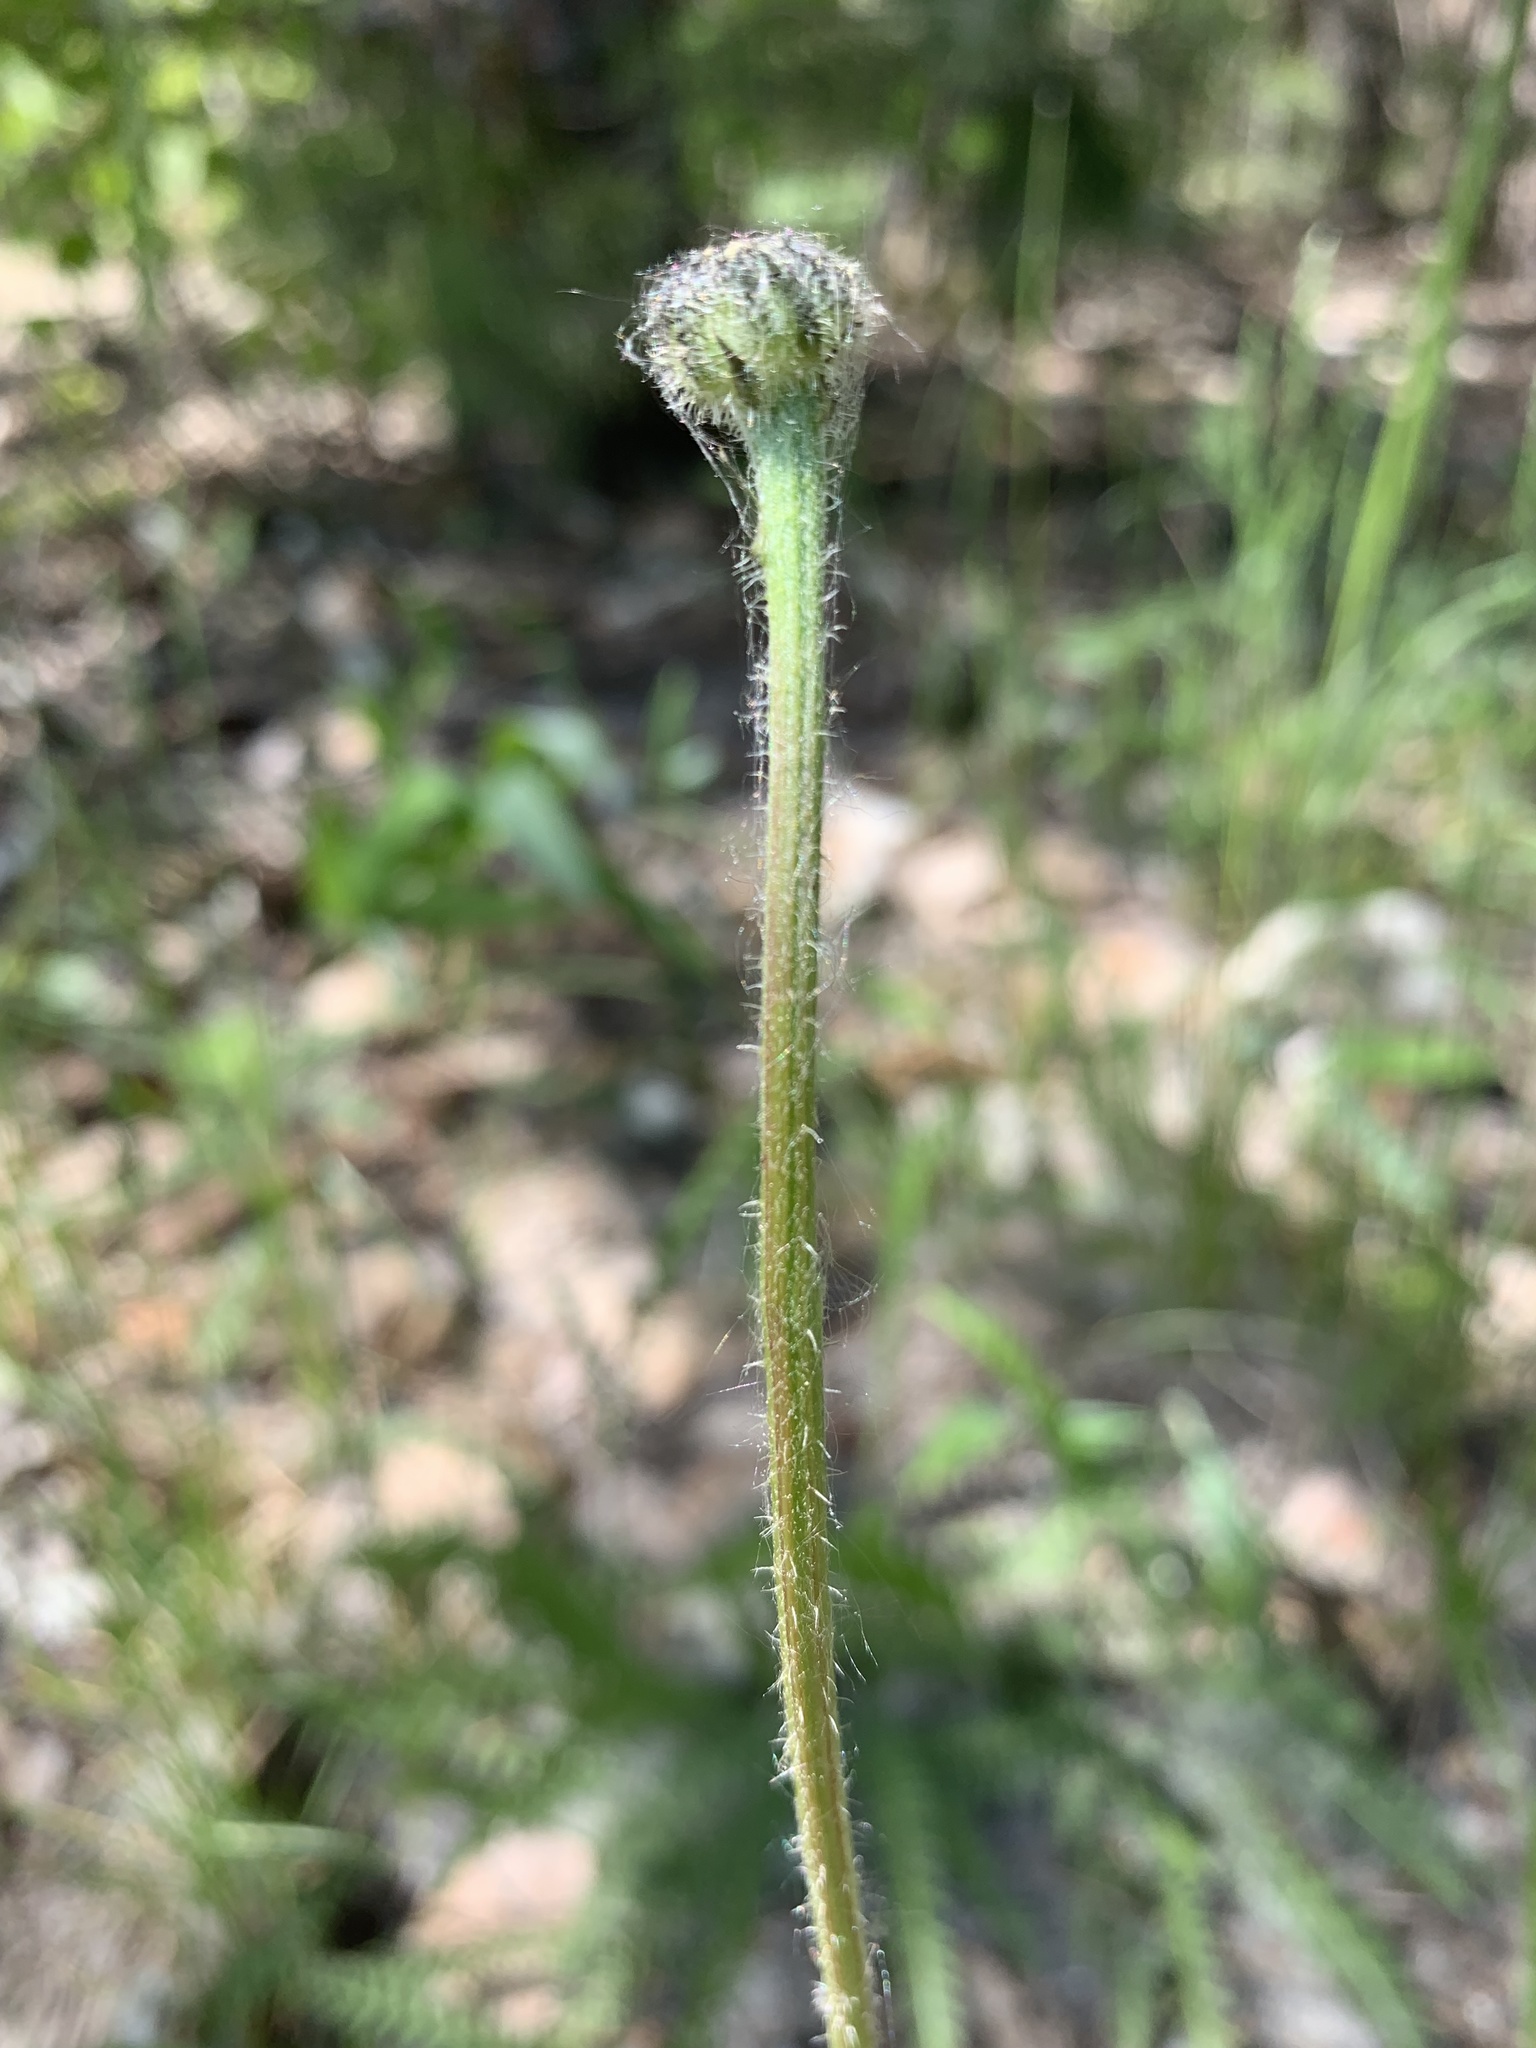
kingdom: Plantae
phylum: Tracheophyta
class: Magnoliopsida
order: Asterales
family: Asteraceae
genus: Trommsdorffia
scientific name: Trommsdorffia maculata
